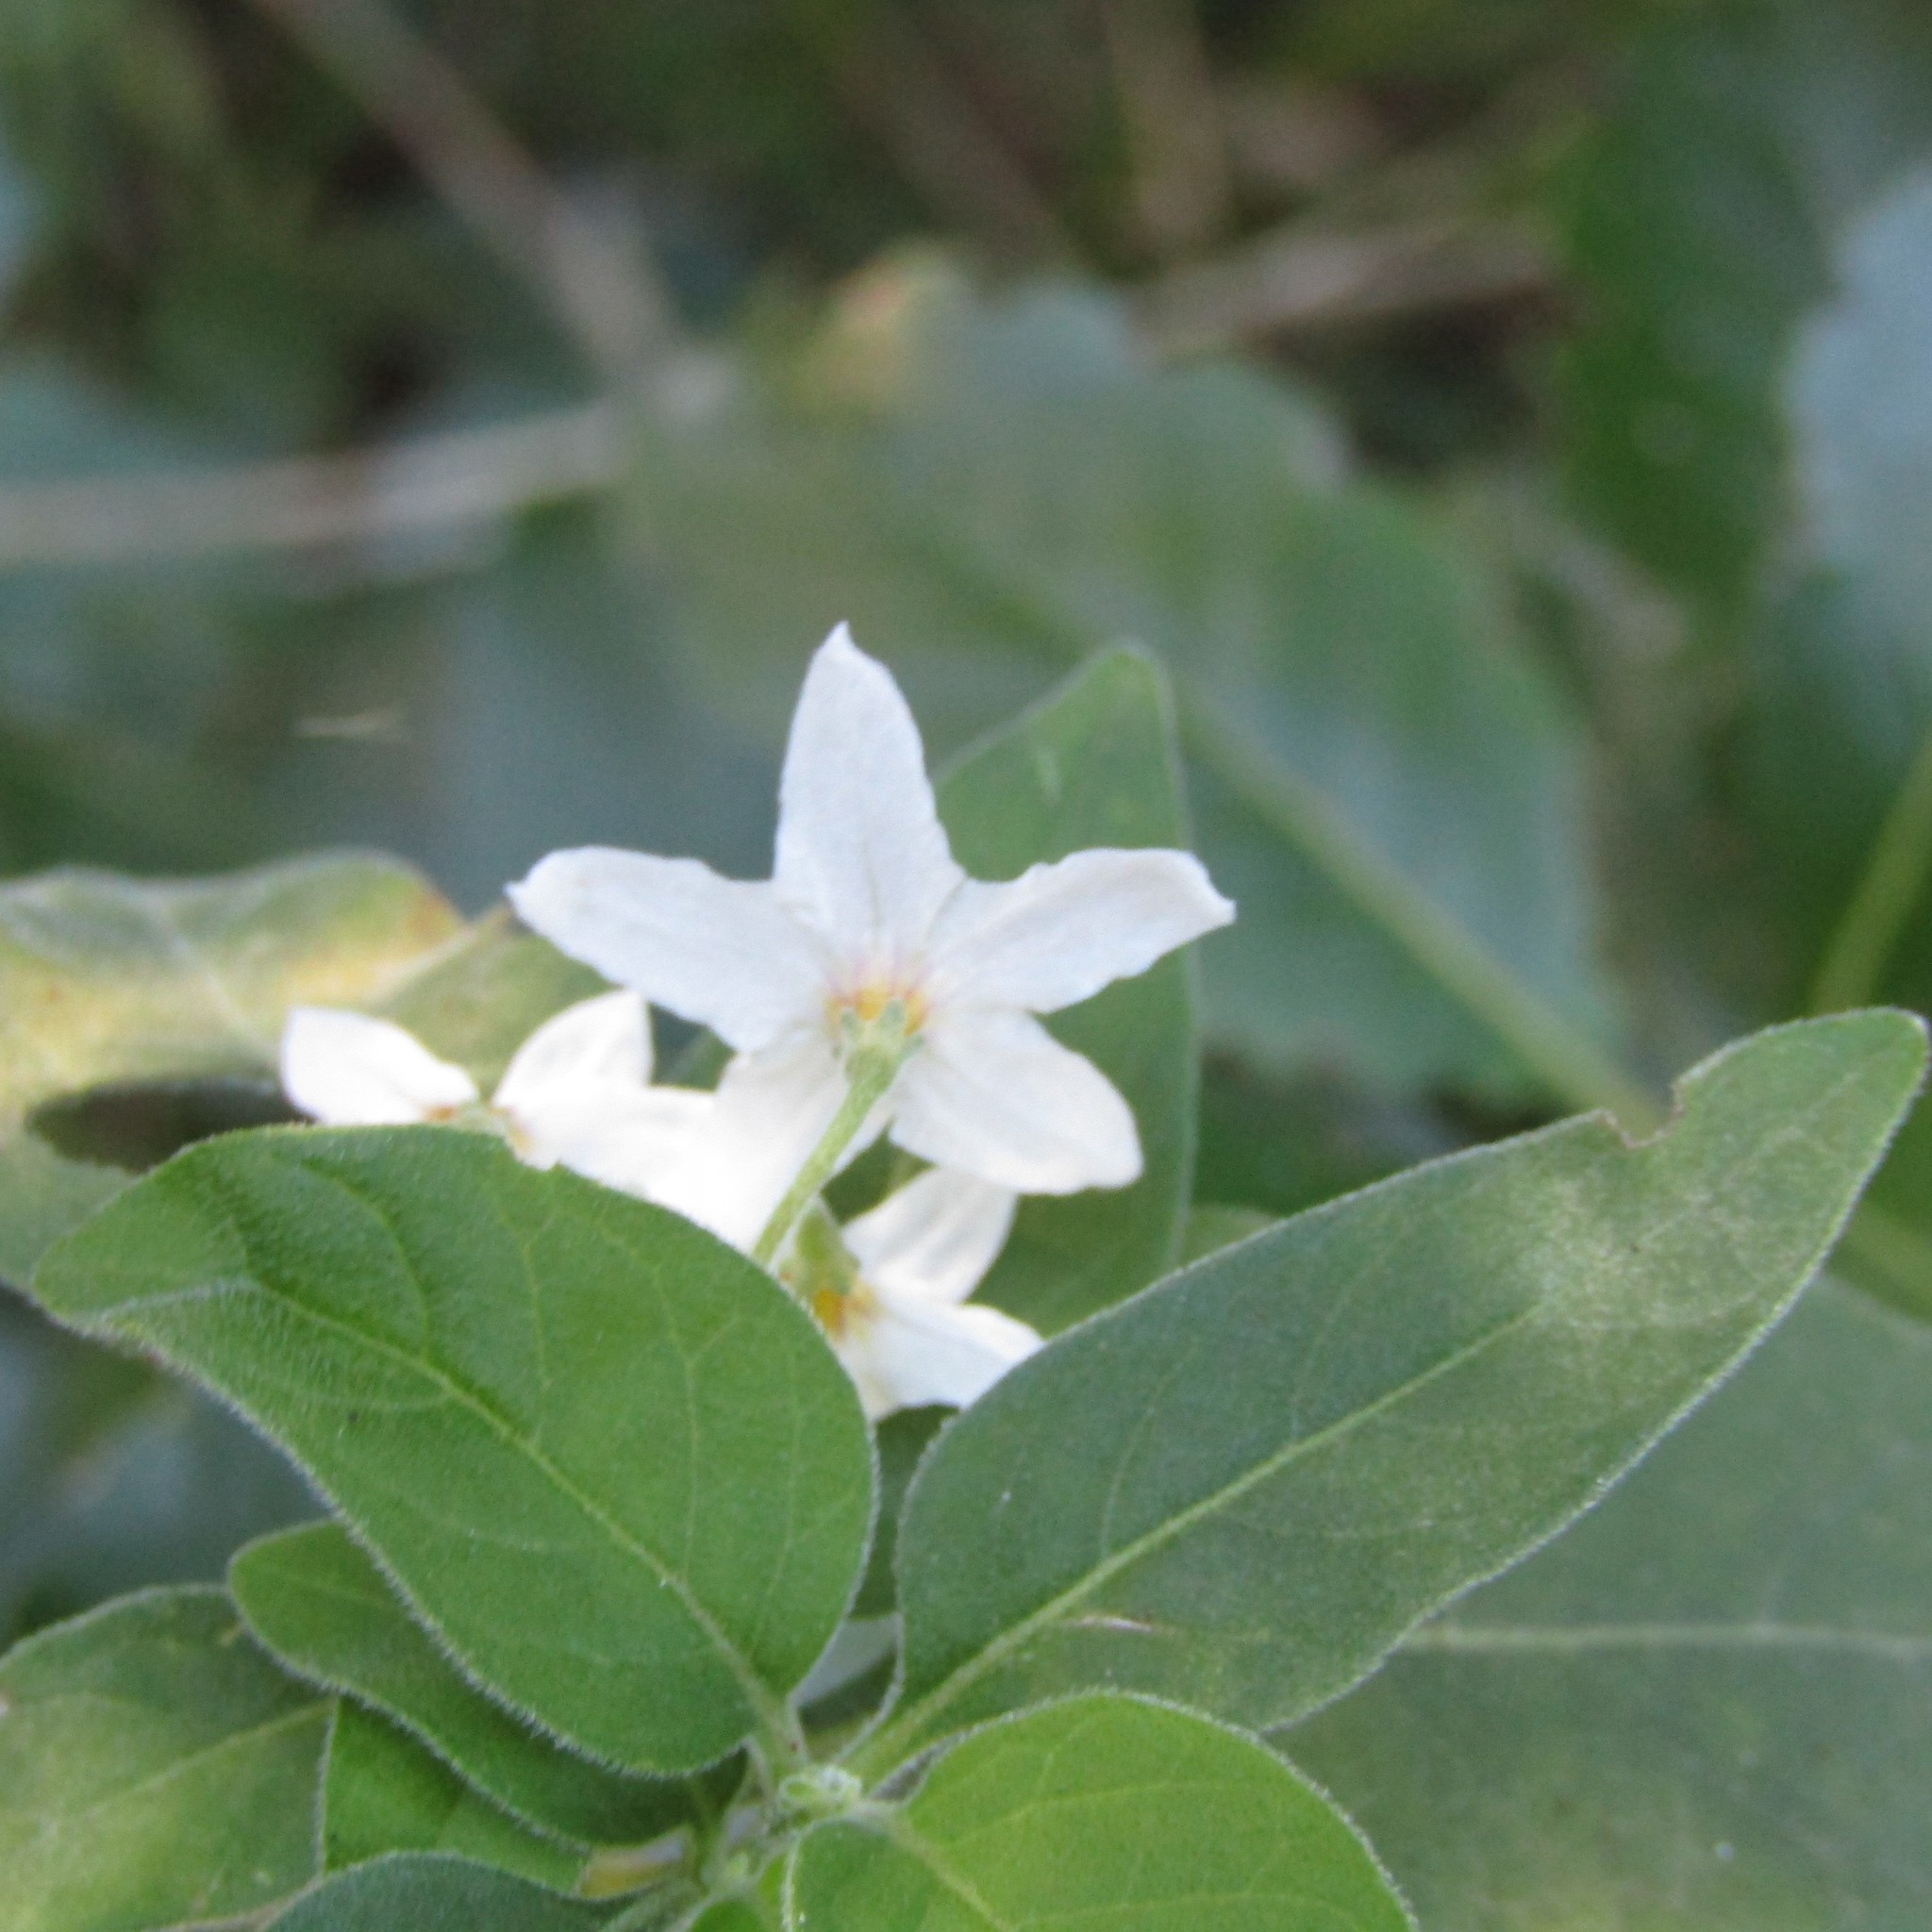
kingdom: Plantae
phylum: Tracheophyta
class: Magnoliopsida
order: Solanales
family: Solanaceae
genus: Solanum
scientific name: Solanum chenopodioides
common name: Tall nightshade
